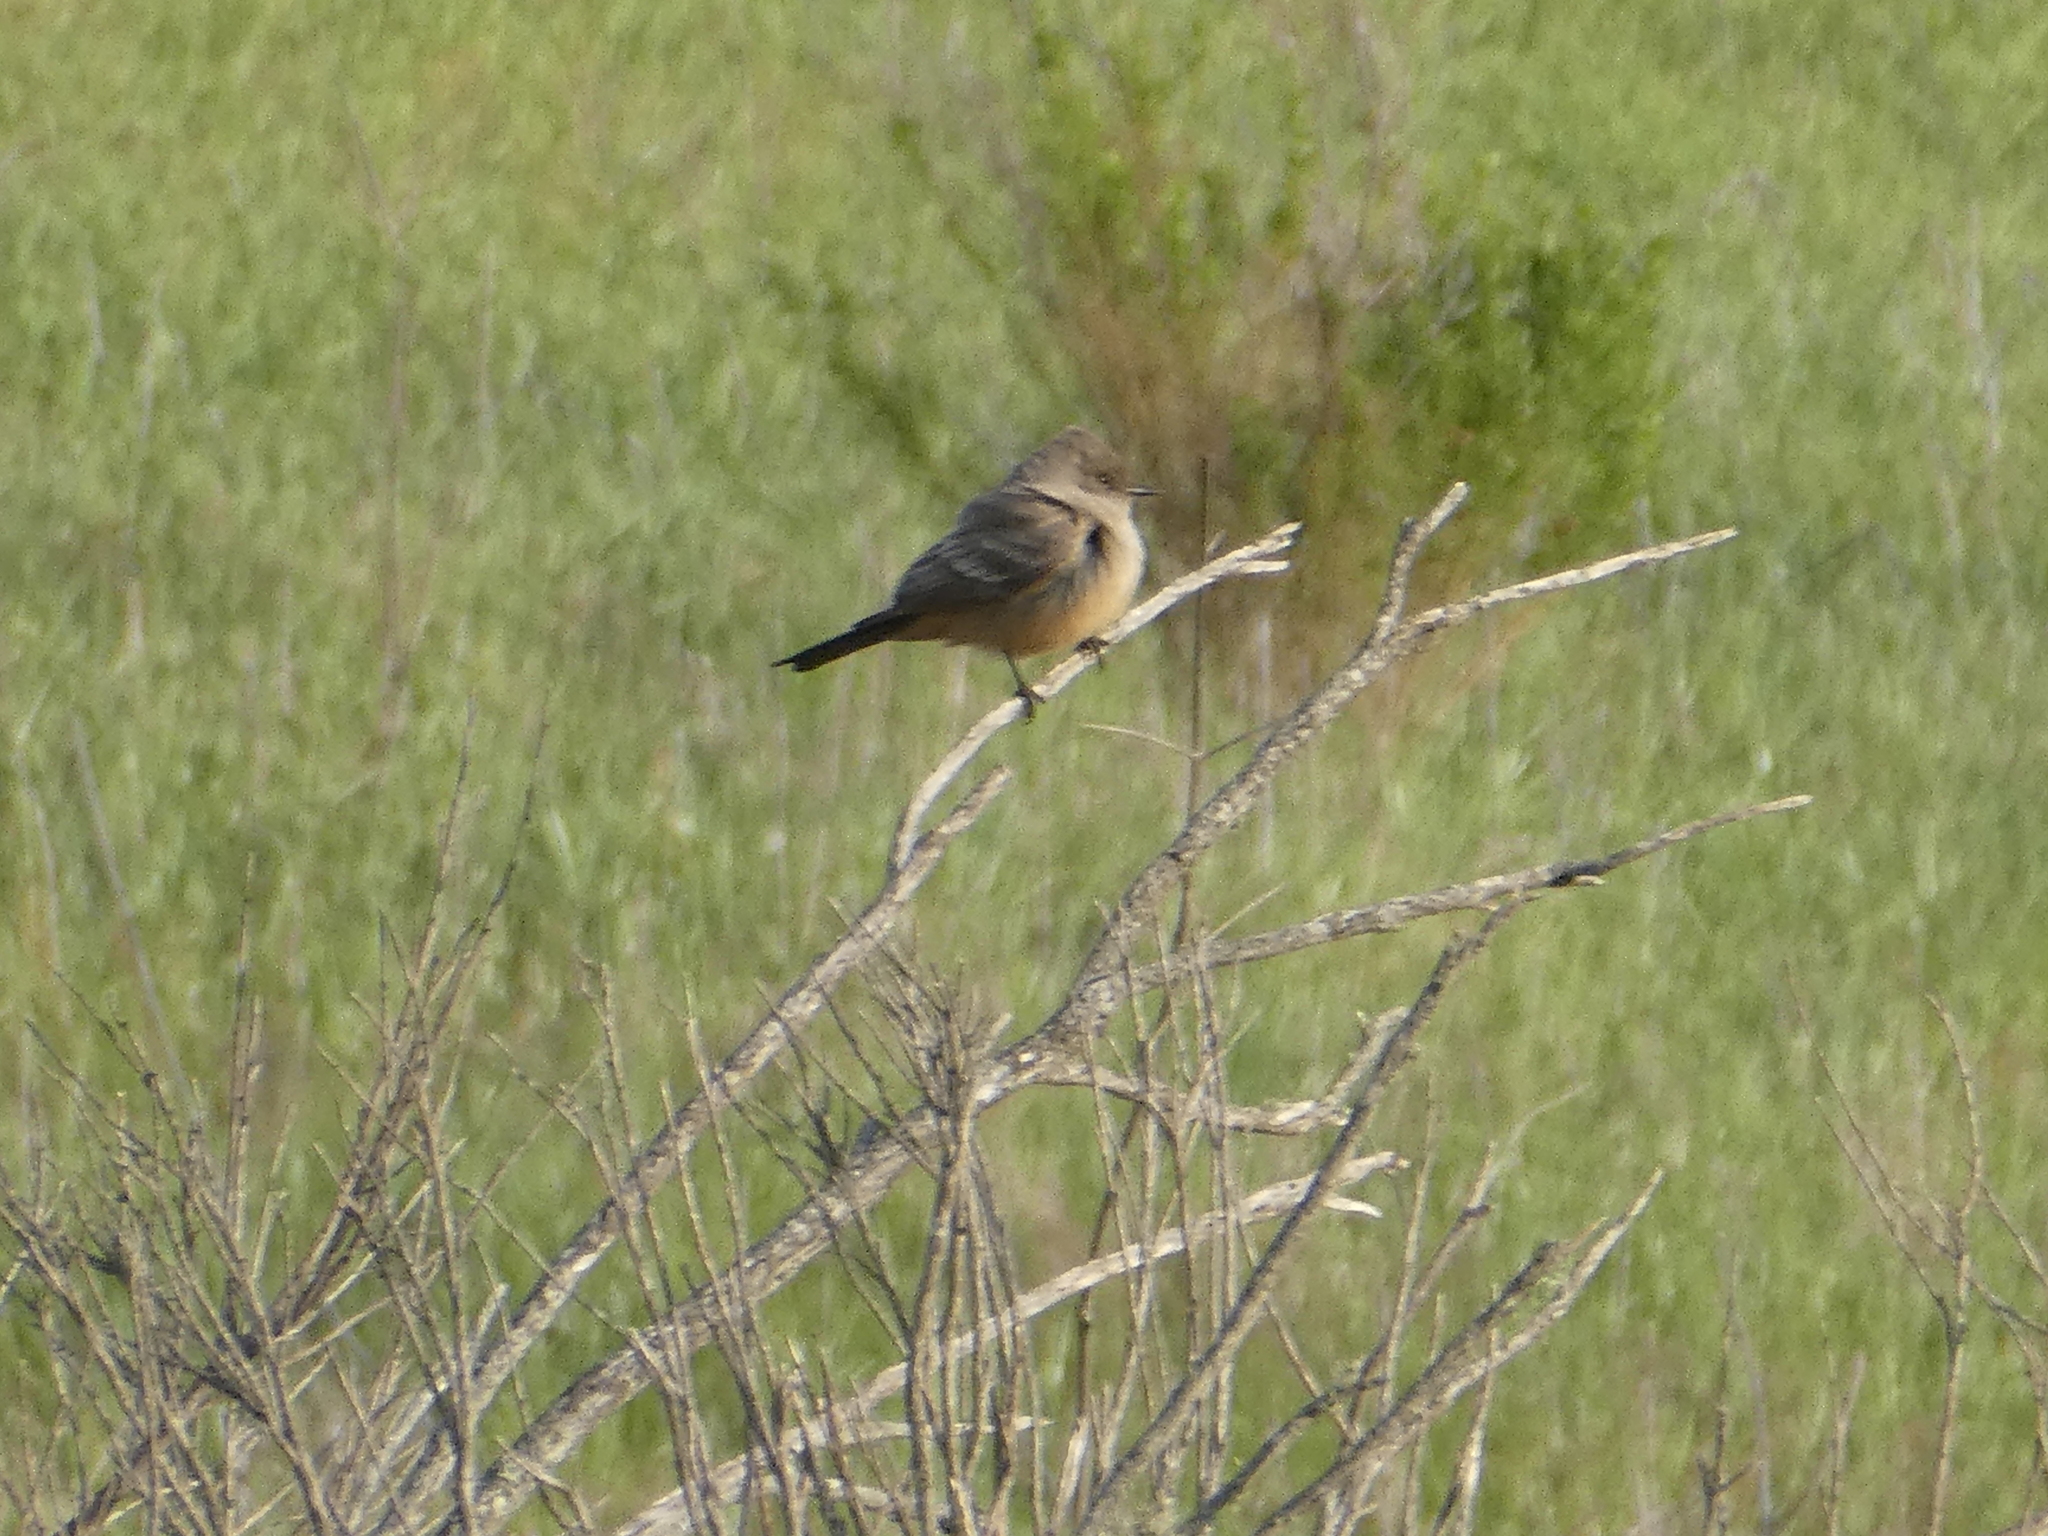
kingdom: Animalia
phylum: Chordata
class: Aves
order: Passeriformes
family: Tyrannidae
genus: Sayornis
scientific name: Sayornis saya
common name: Say's phoebe
